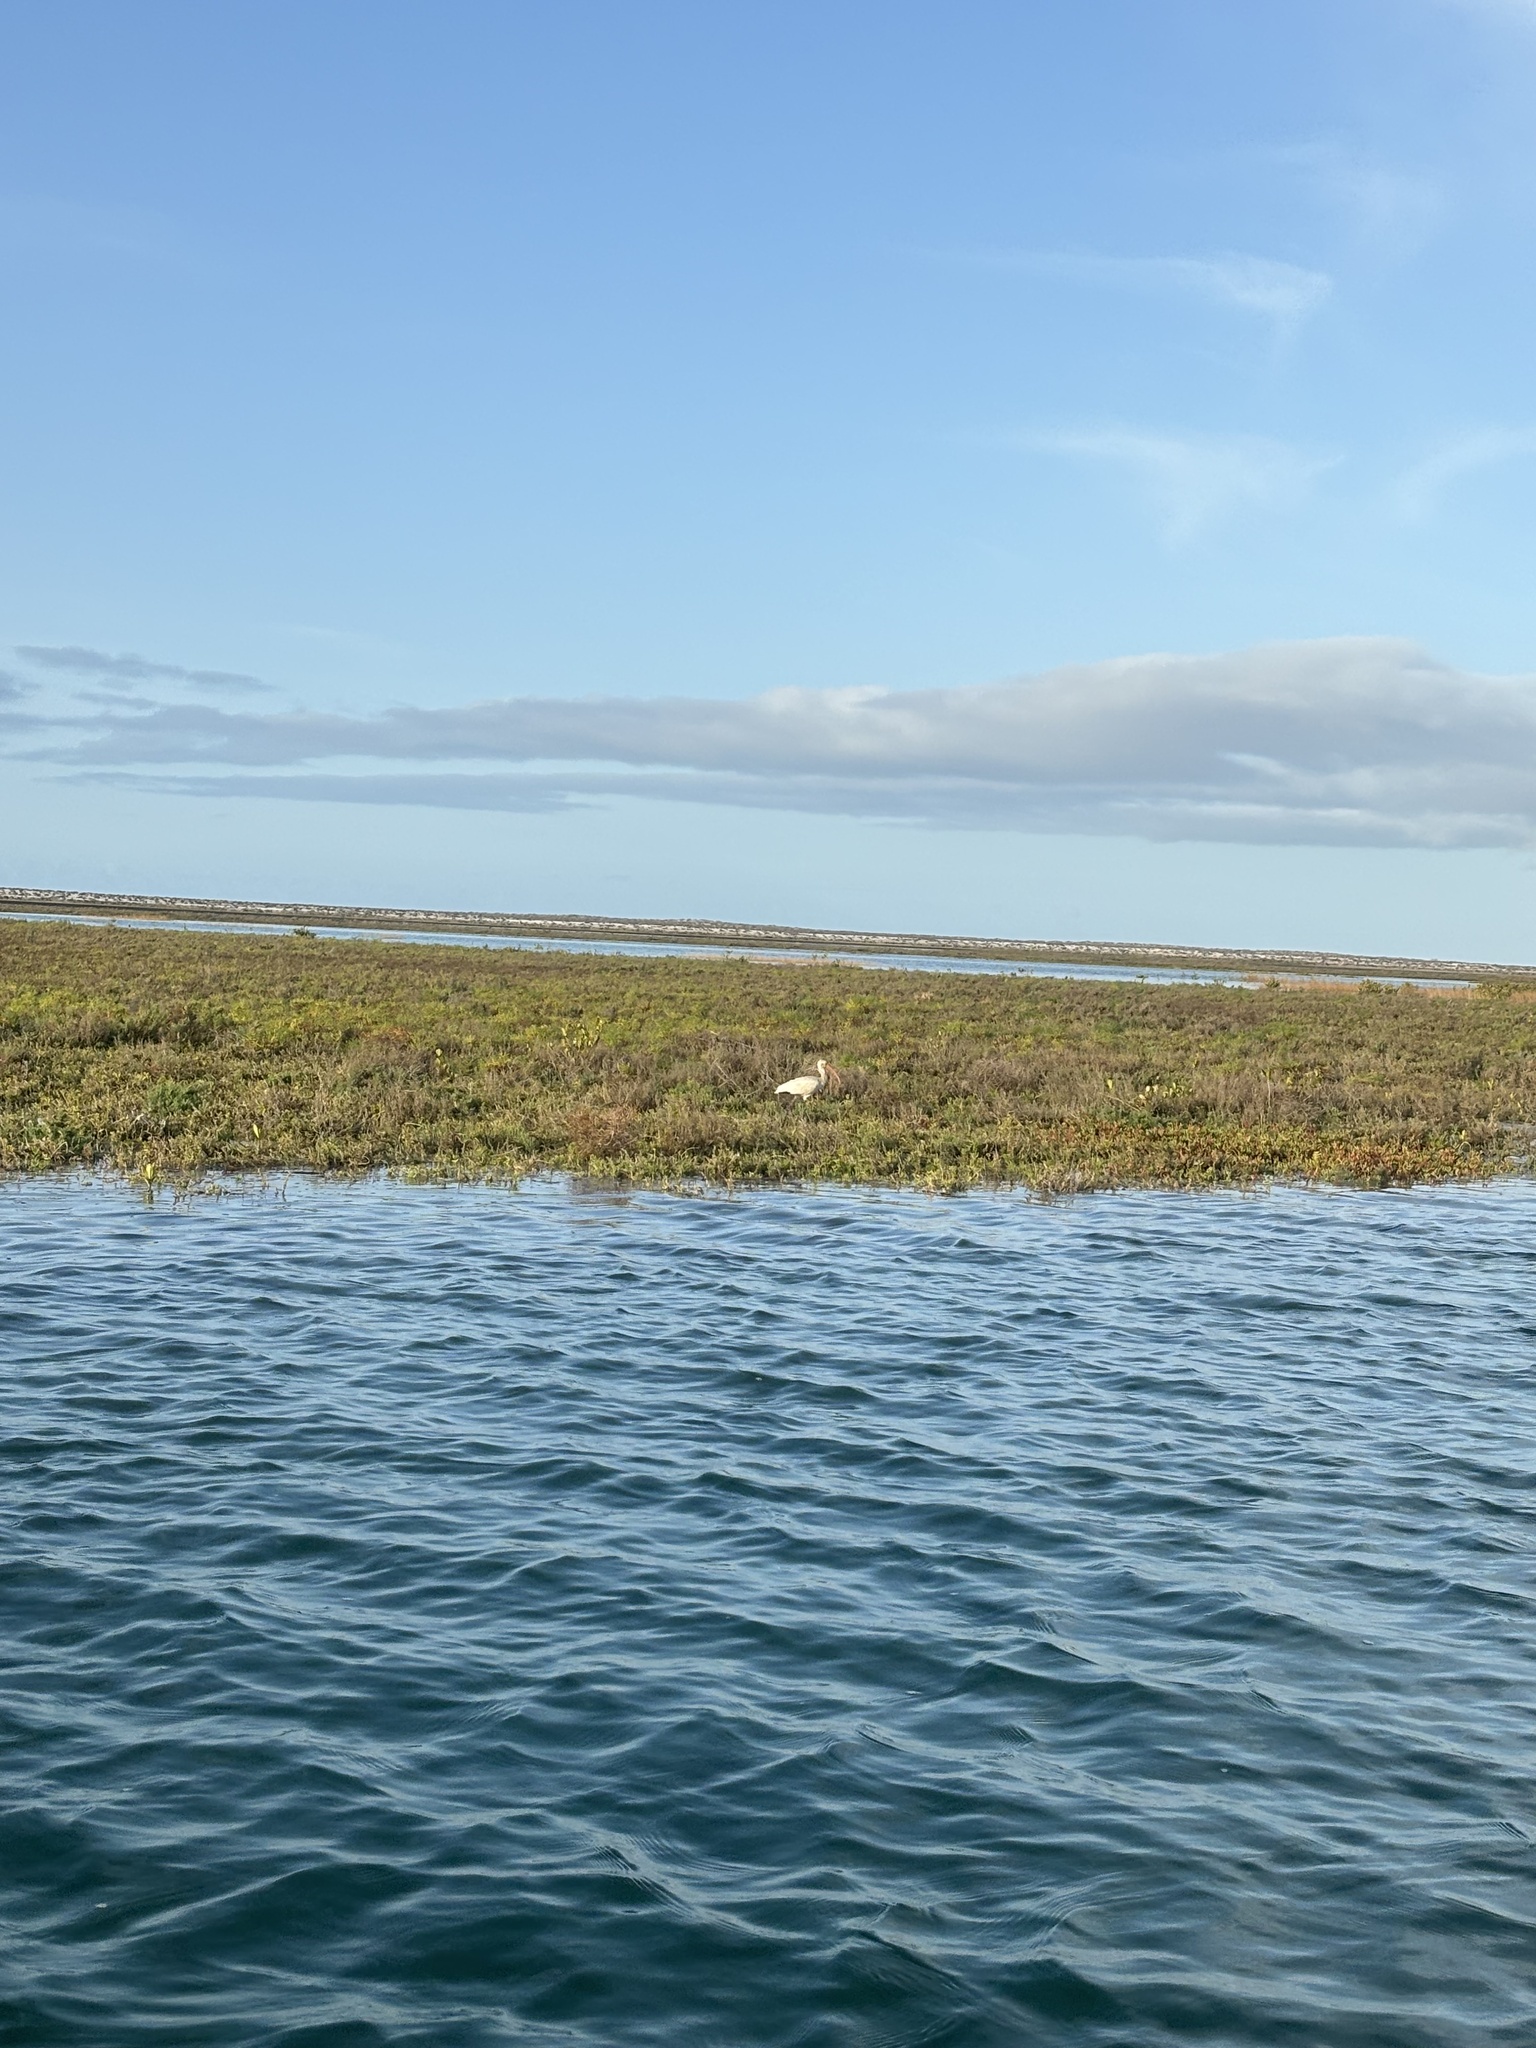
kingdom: Animalia
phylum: Chordata
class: Aves
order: Pelecaniformes
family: Threskiornithidae
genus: Eudocimus
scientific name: Eudocimus albus
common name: White ibis
